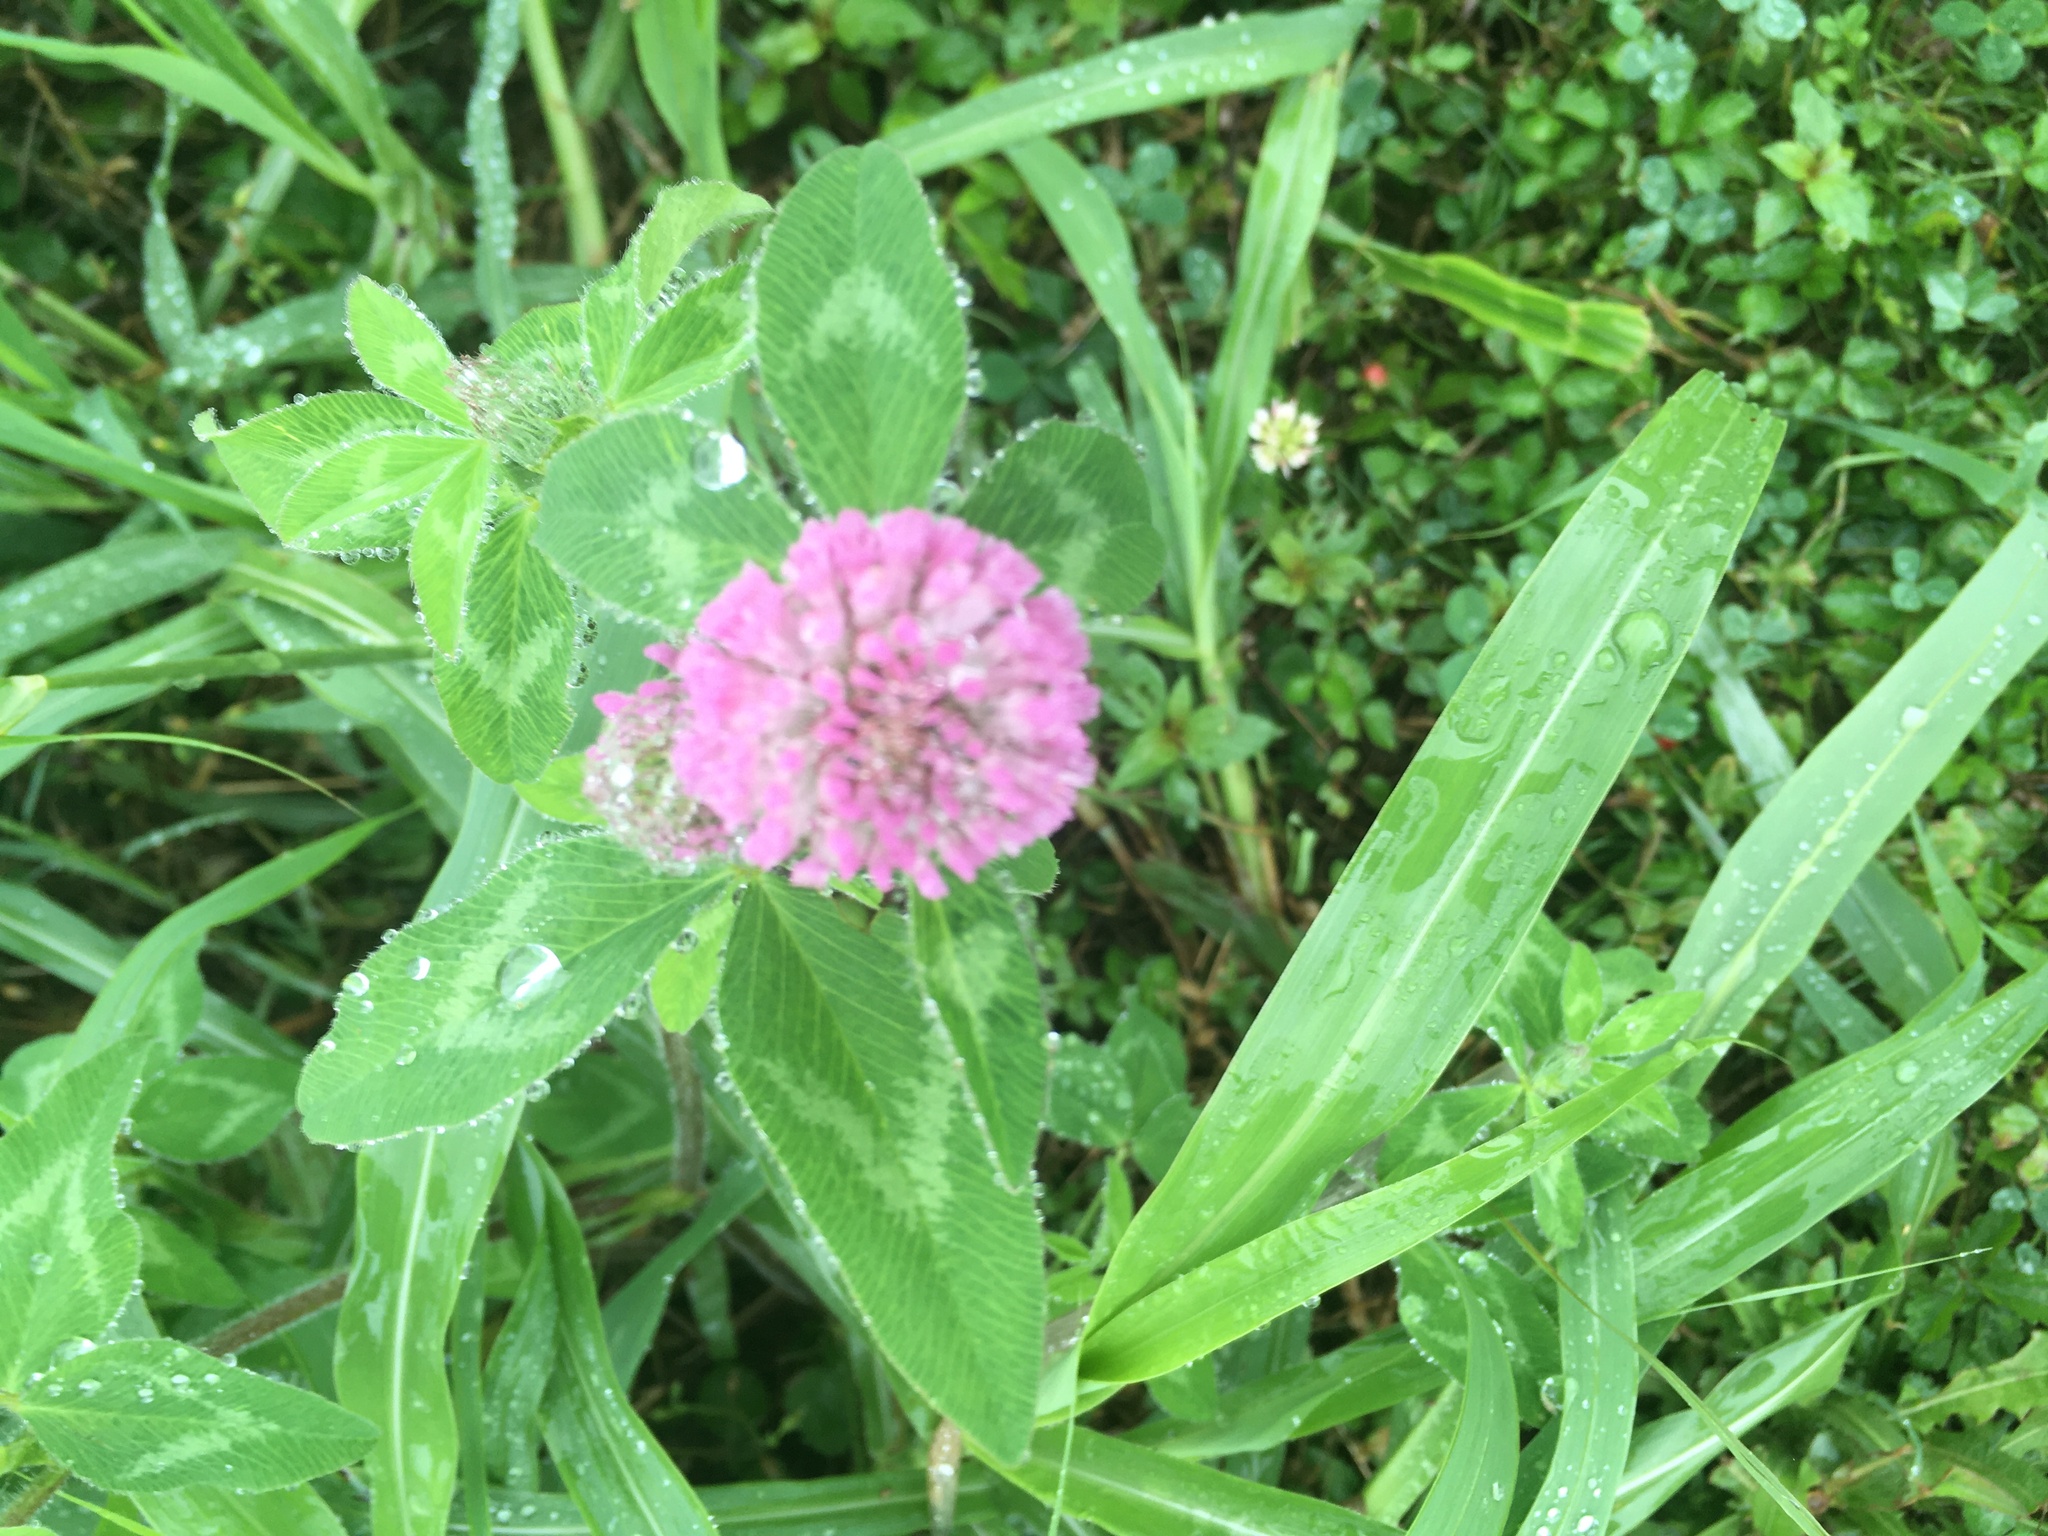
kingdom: Plantae
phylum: Tracheophyta
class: Magnoliopsida
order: Fabales
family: Fabaceae
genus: Trifolium
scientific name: Trifolium pratense
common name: Red clover
